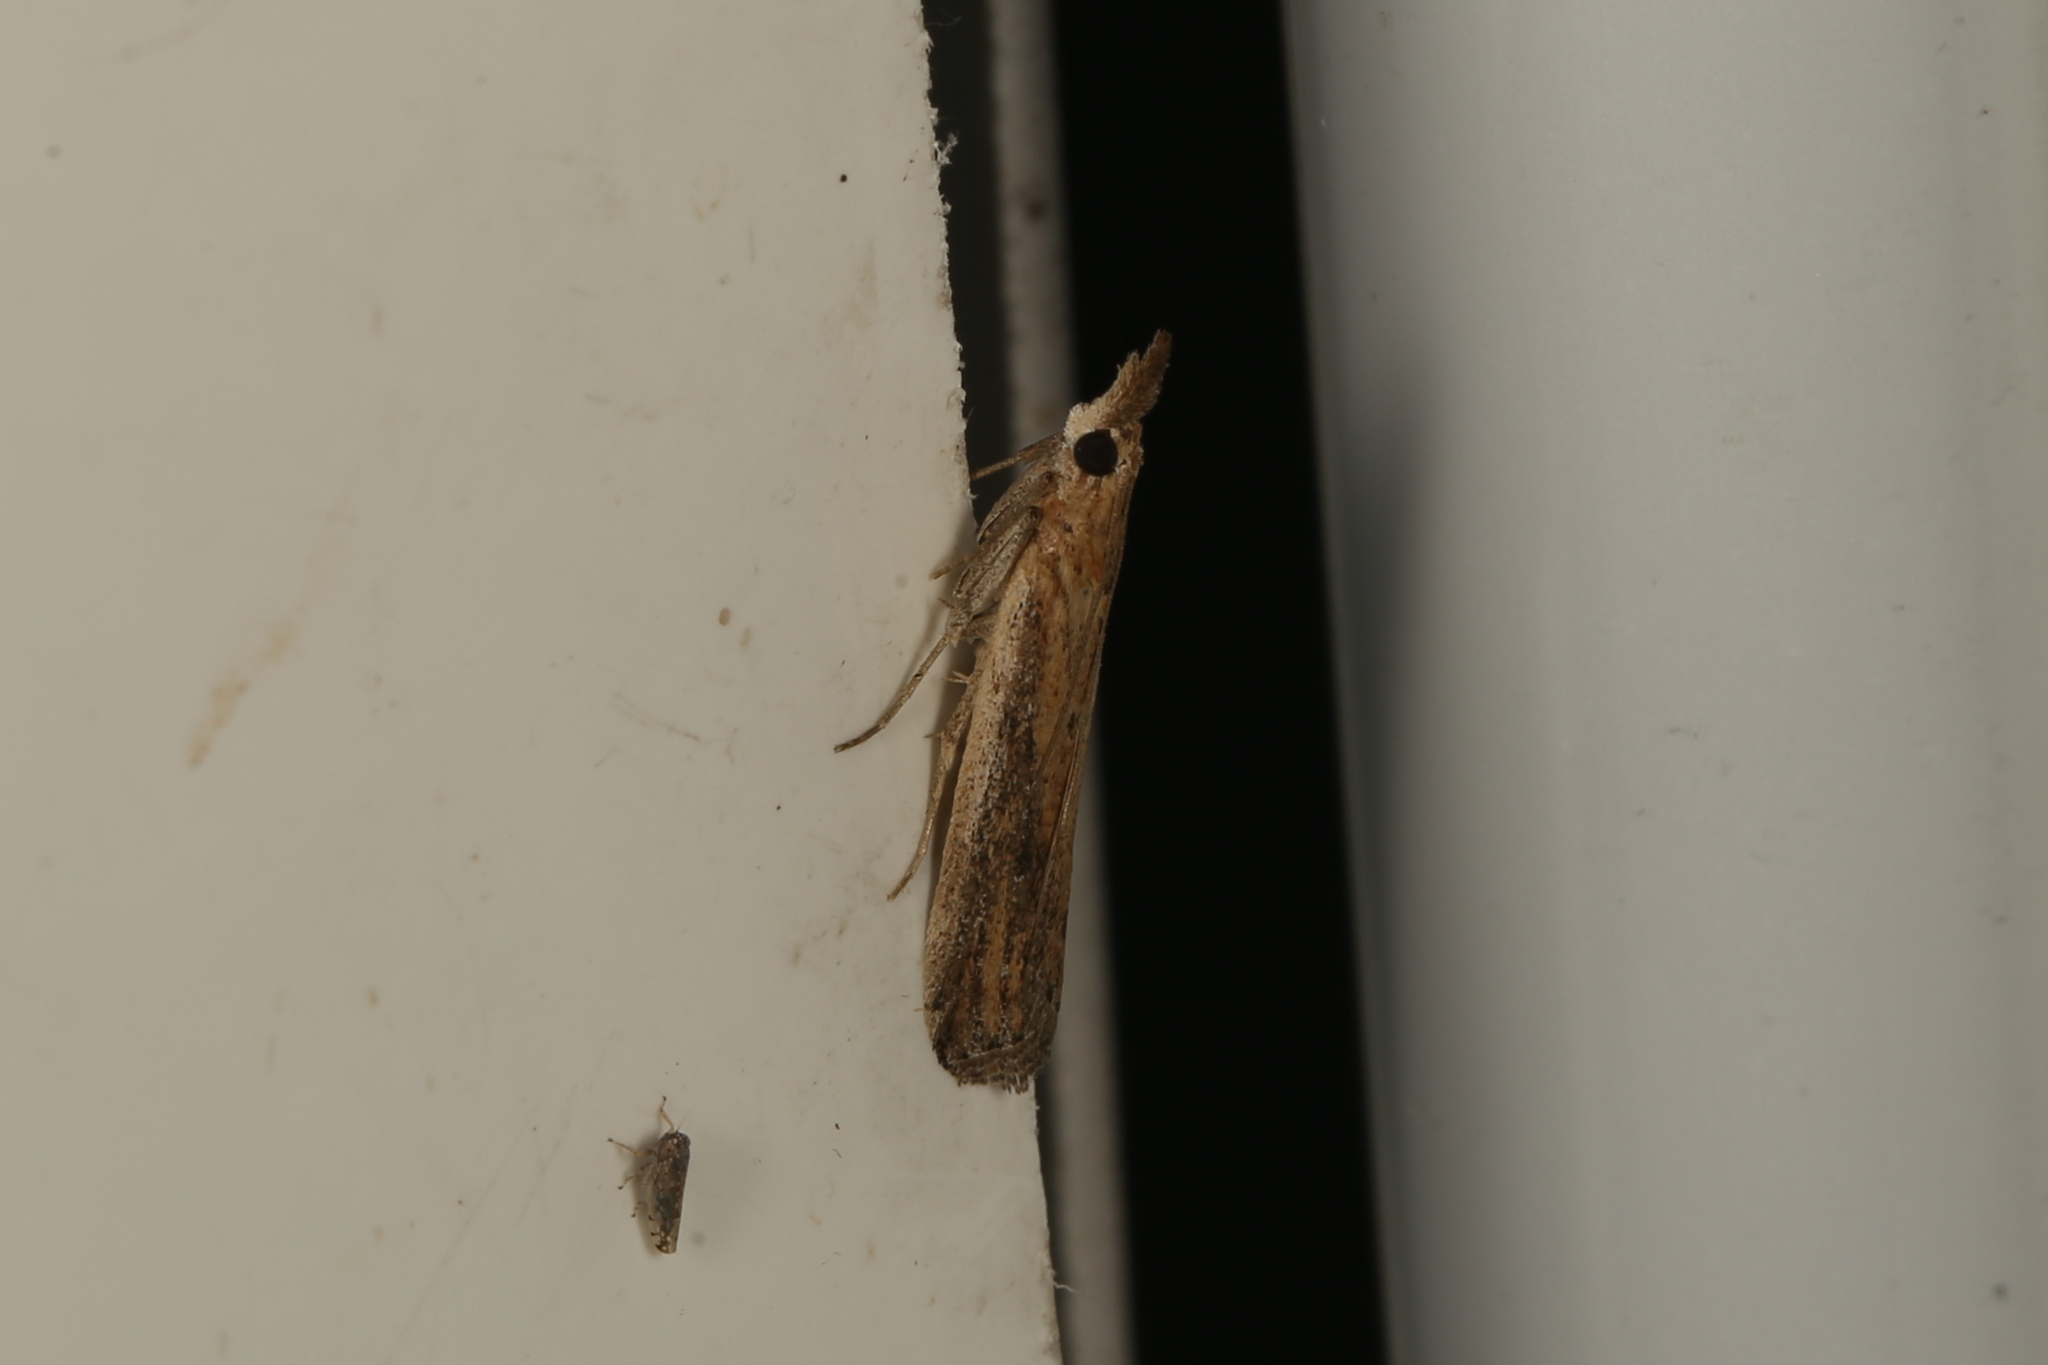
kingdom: Animalia
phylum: Arthropoda
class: Insecta
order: Lepidoptera
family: Pyralidae
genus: Faveria
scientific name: Faveria tritalis
